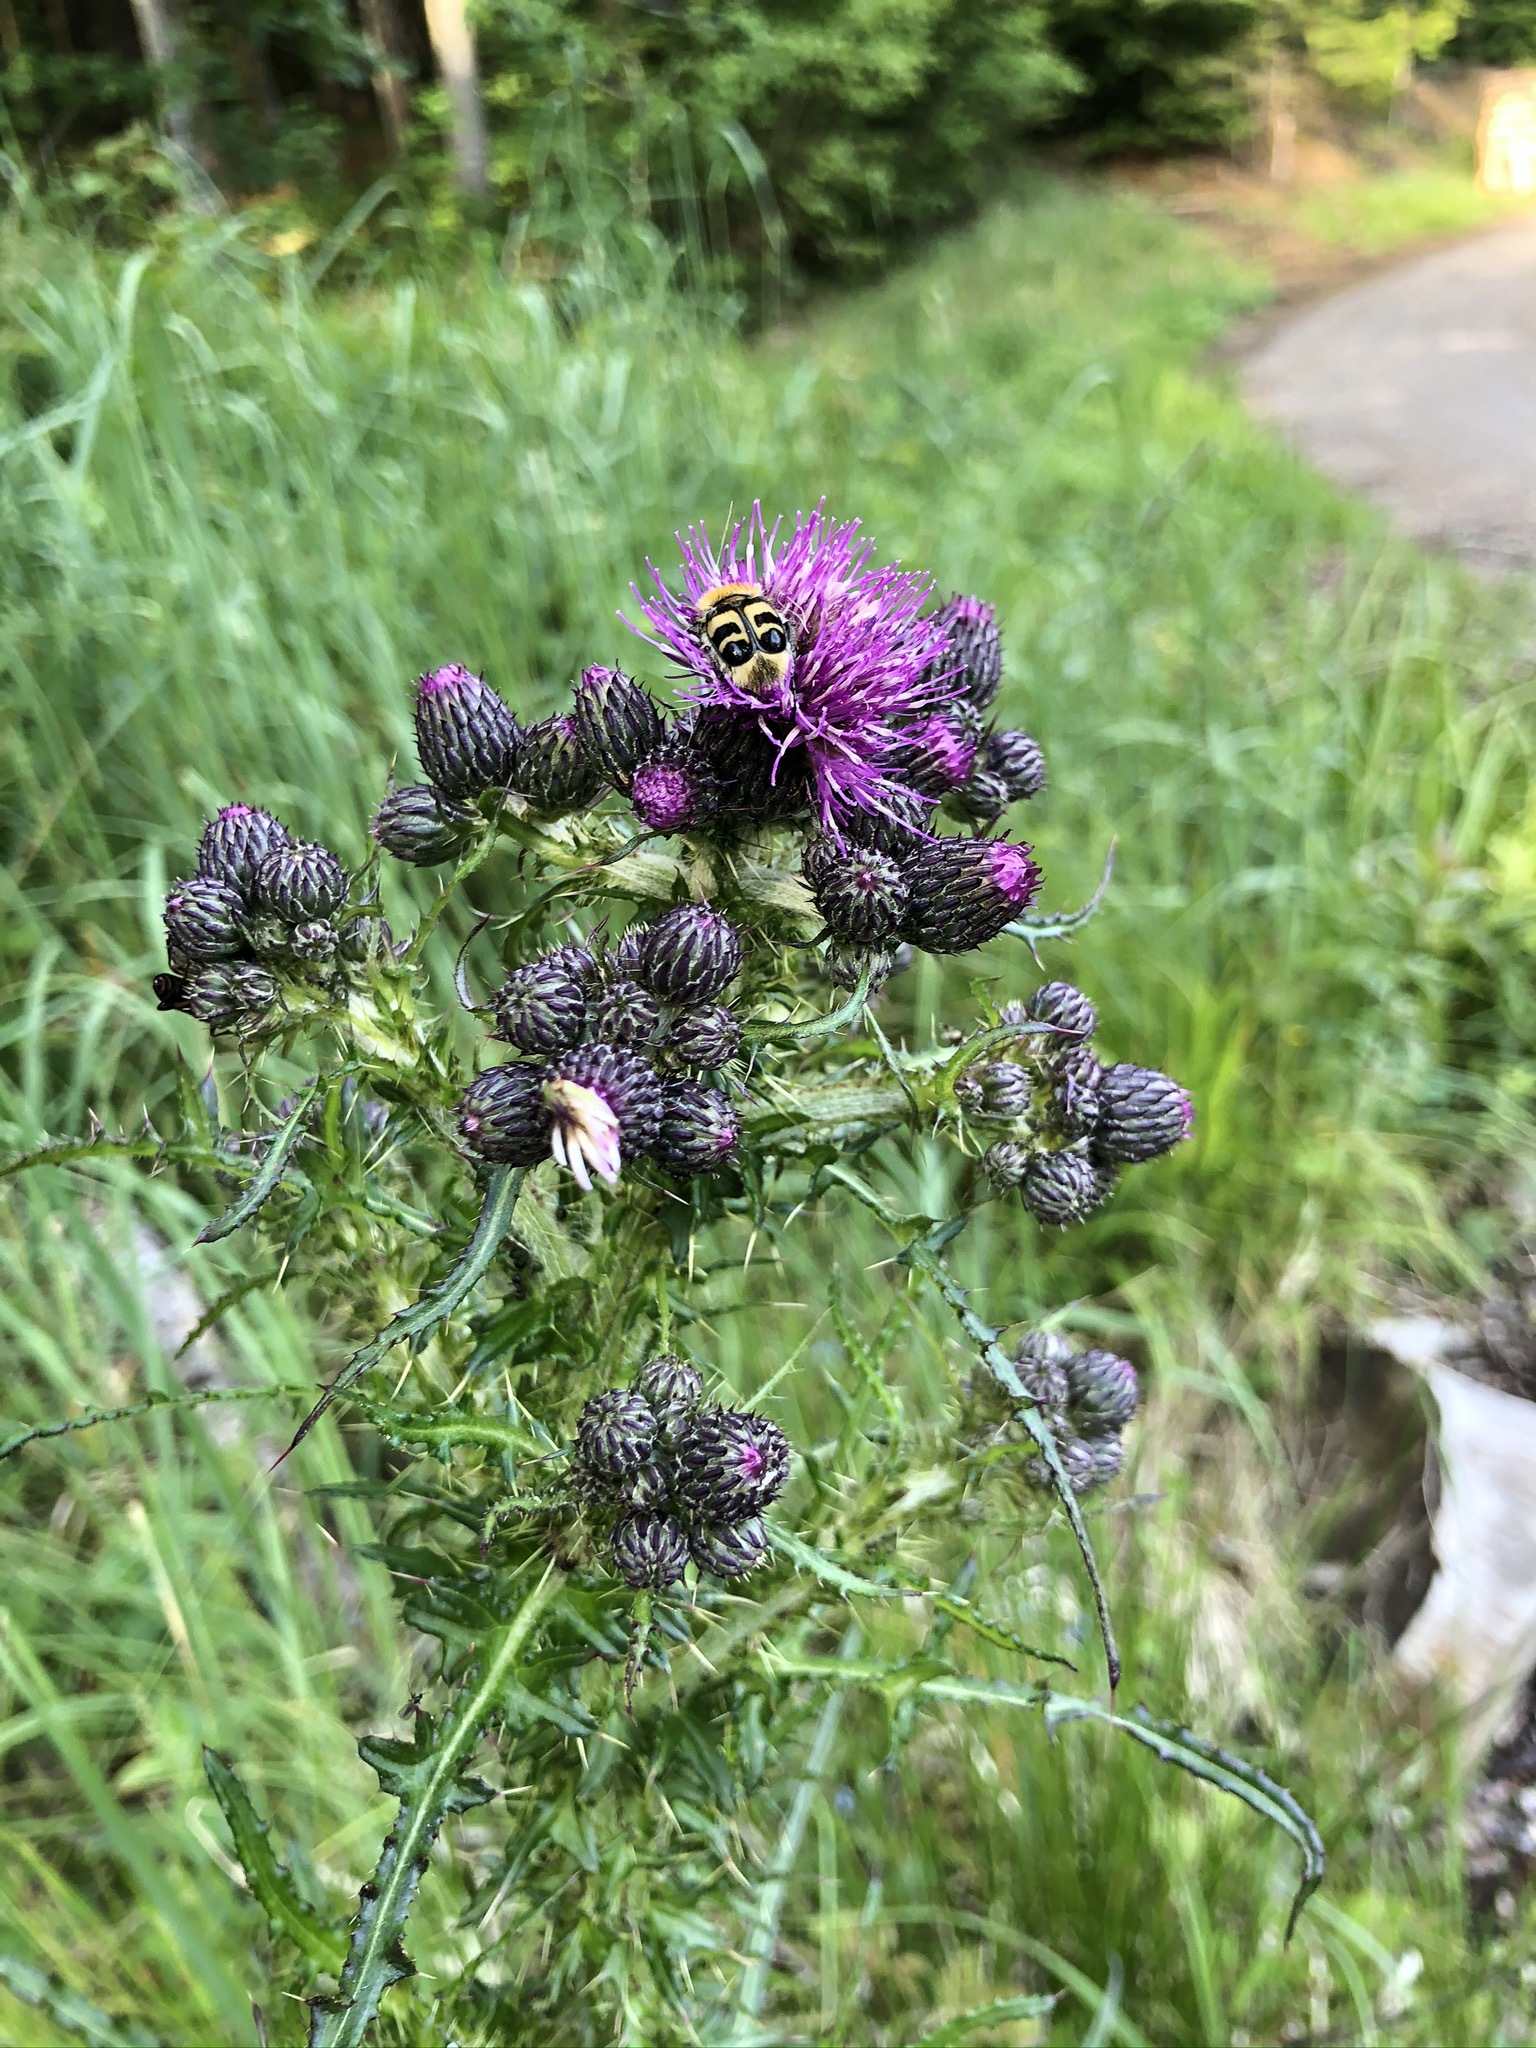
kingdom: Plantae
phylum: Tracheophyta
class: Magnoliopsida
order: Asterales
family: Asteraceae
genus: Cirsium
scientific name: Cirsium palustre
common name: Marsh thistle
